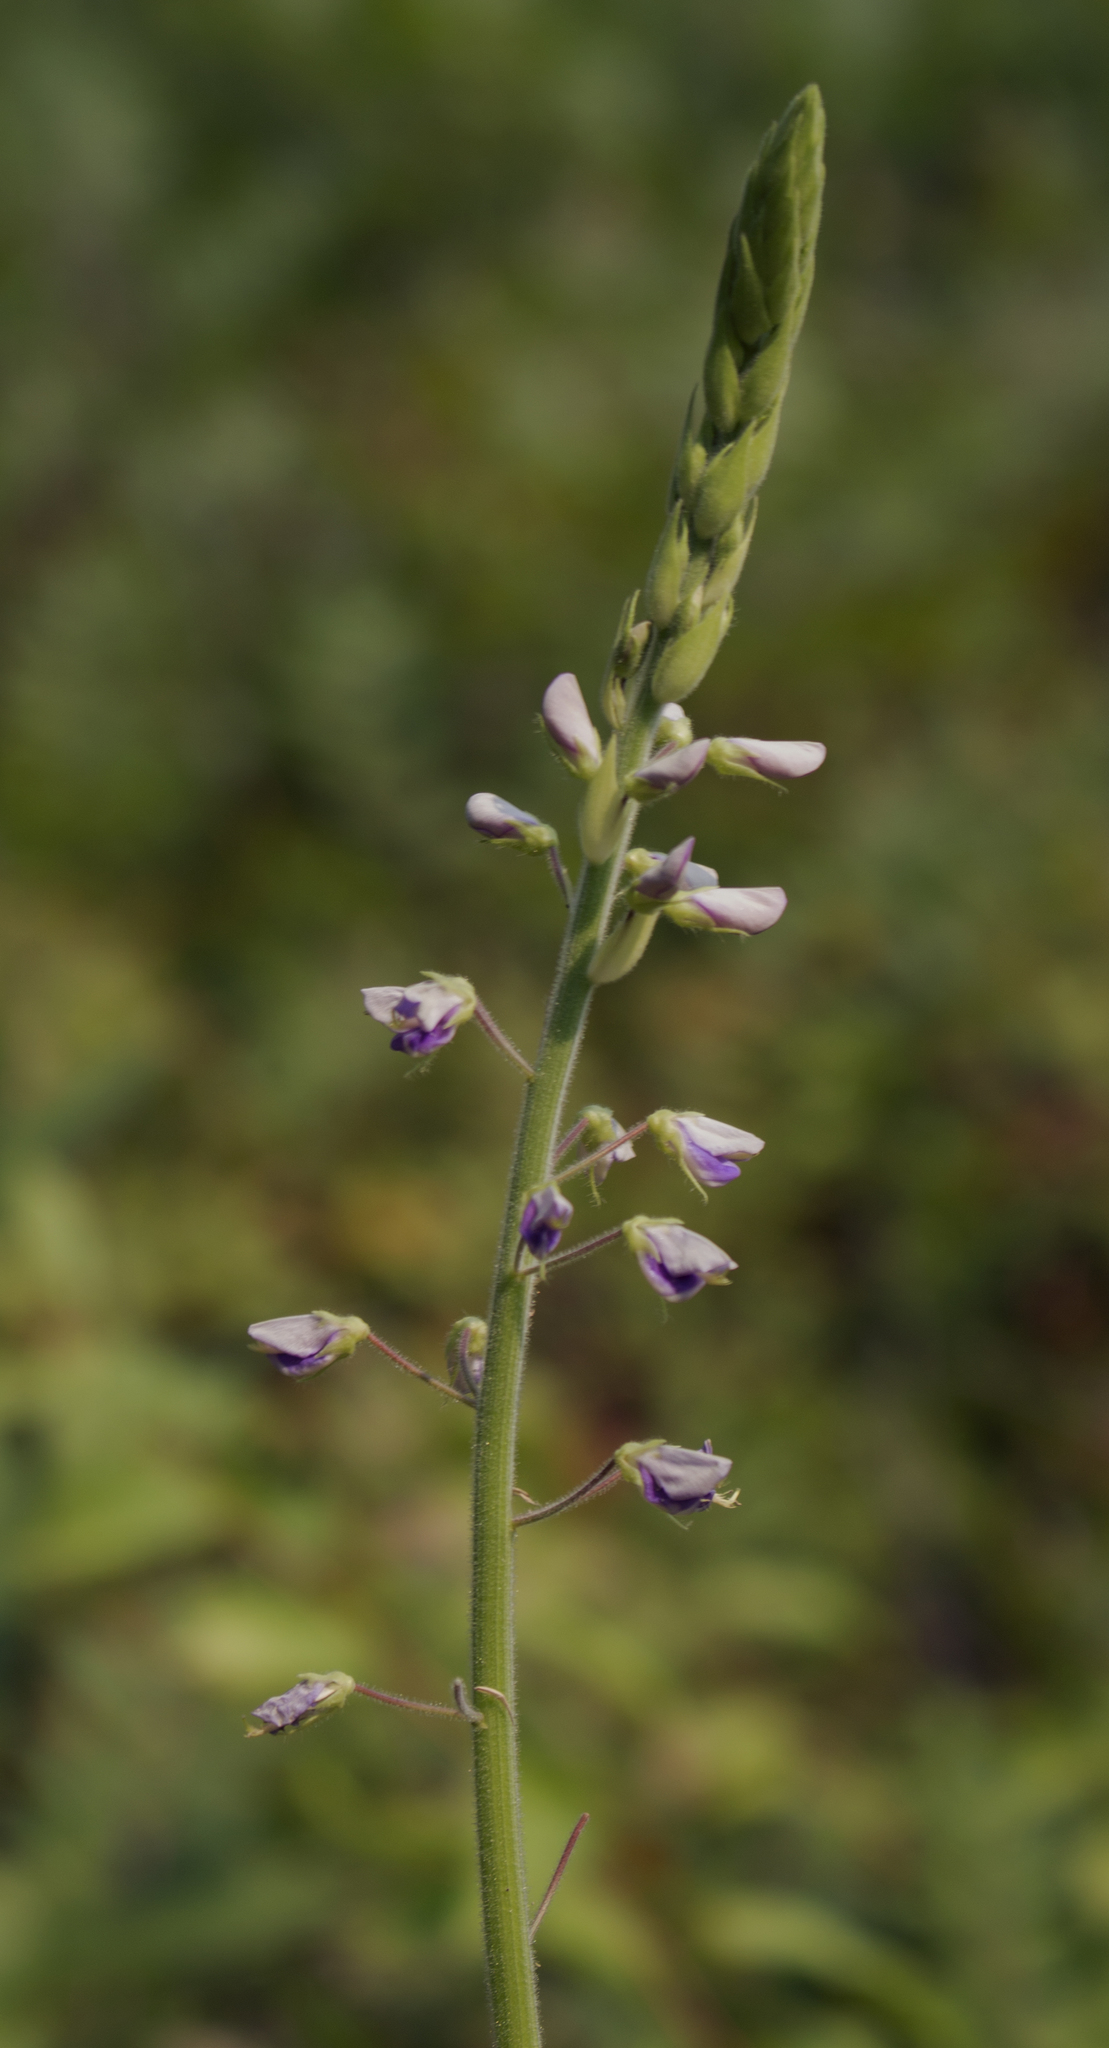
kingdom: Plantae
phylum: Tracheophyta
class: Magnoliopsida
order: Fabales
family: Fabaceae
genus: Desmodium
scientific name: Desmodium illinoense
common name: Illinois tick-clover
